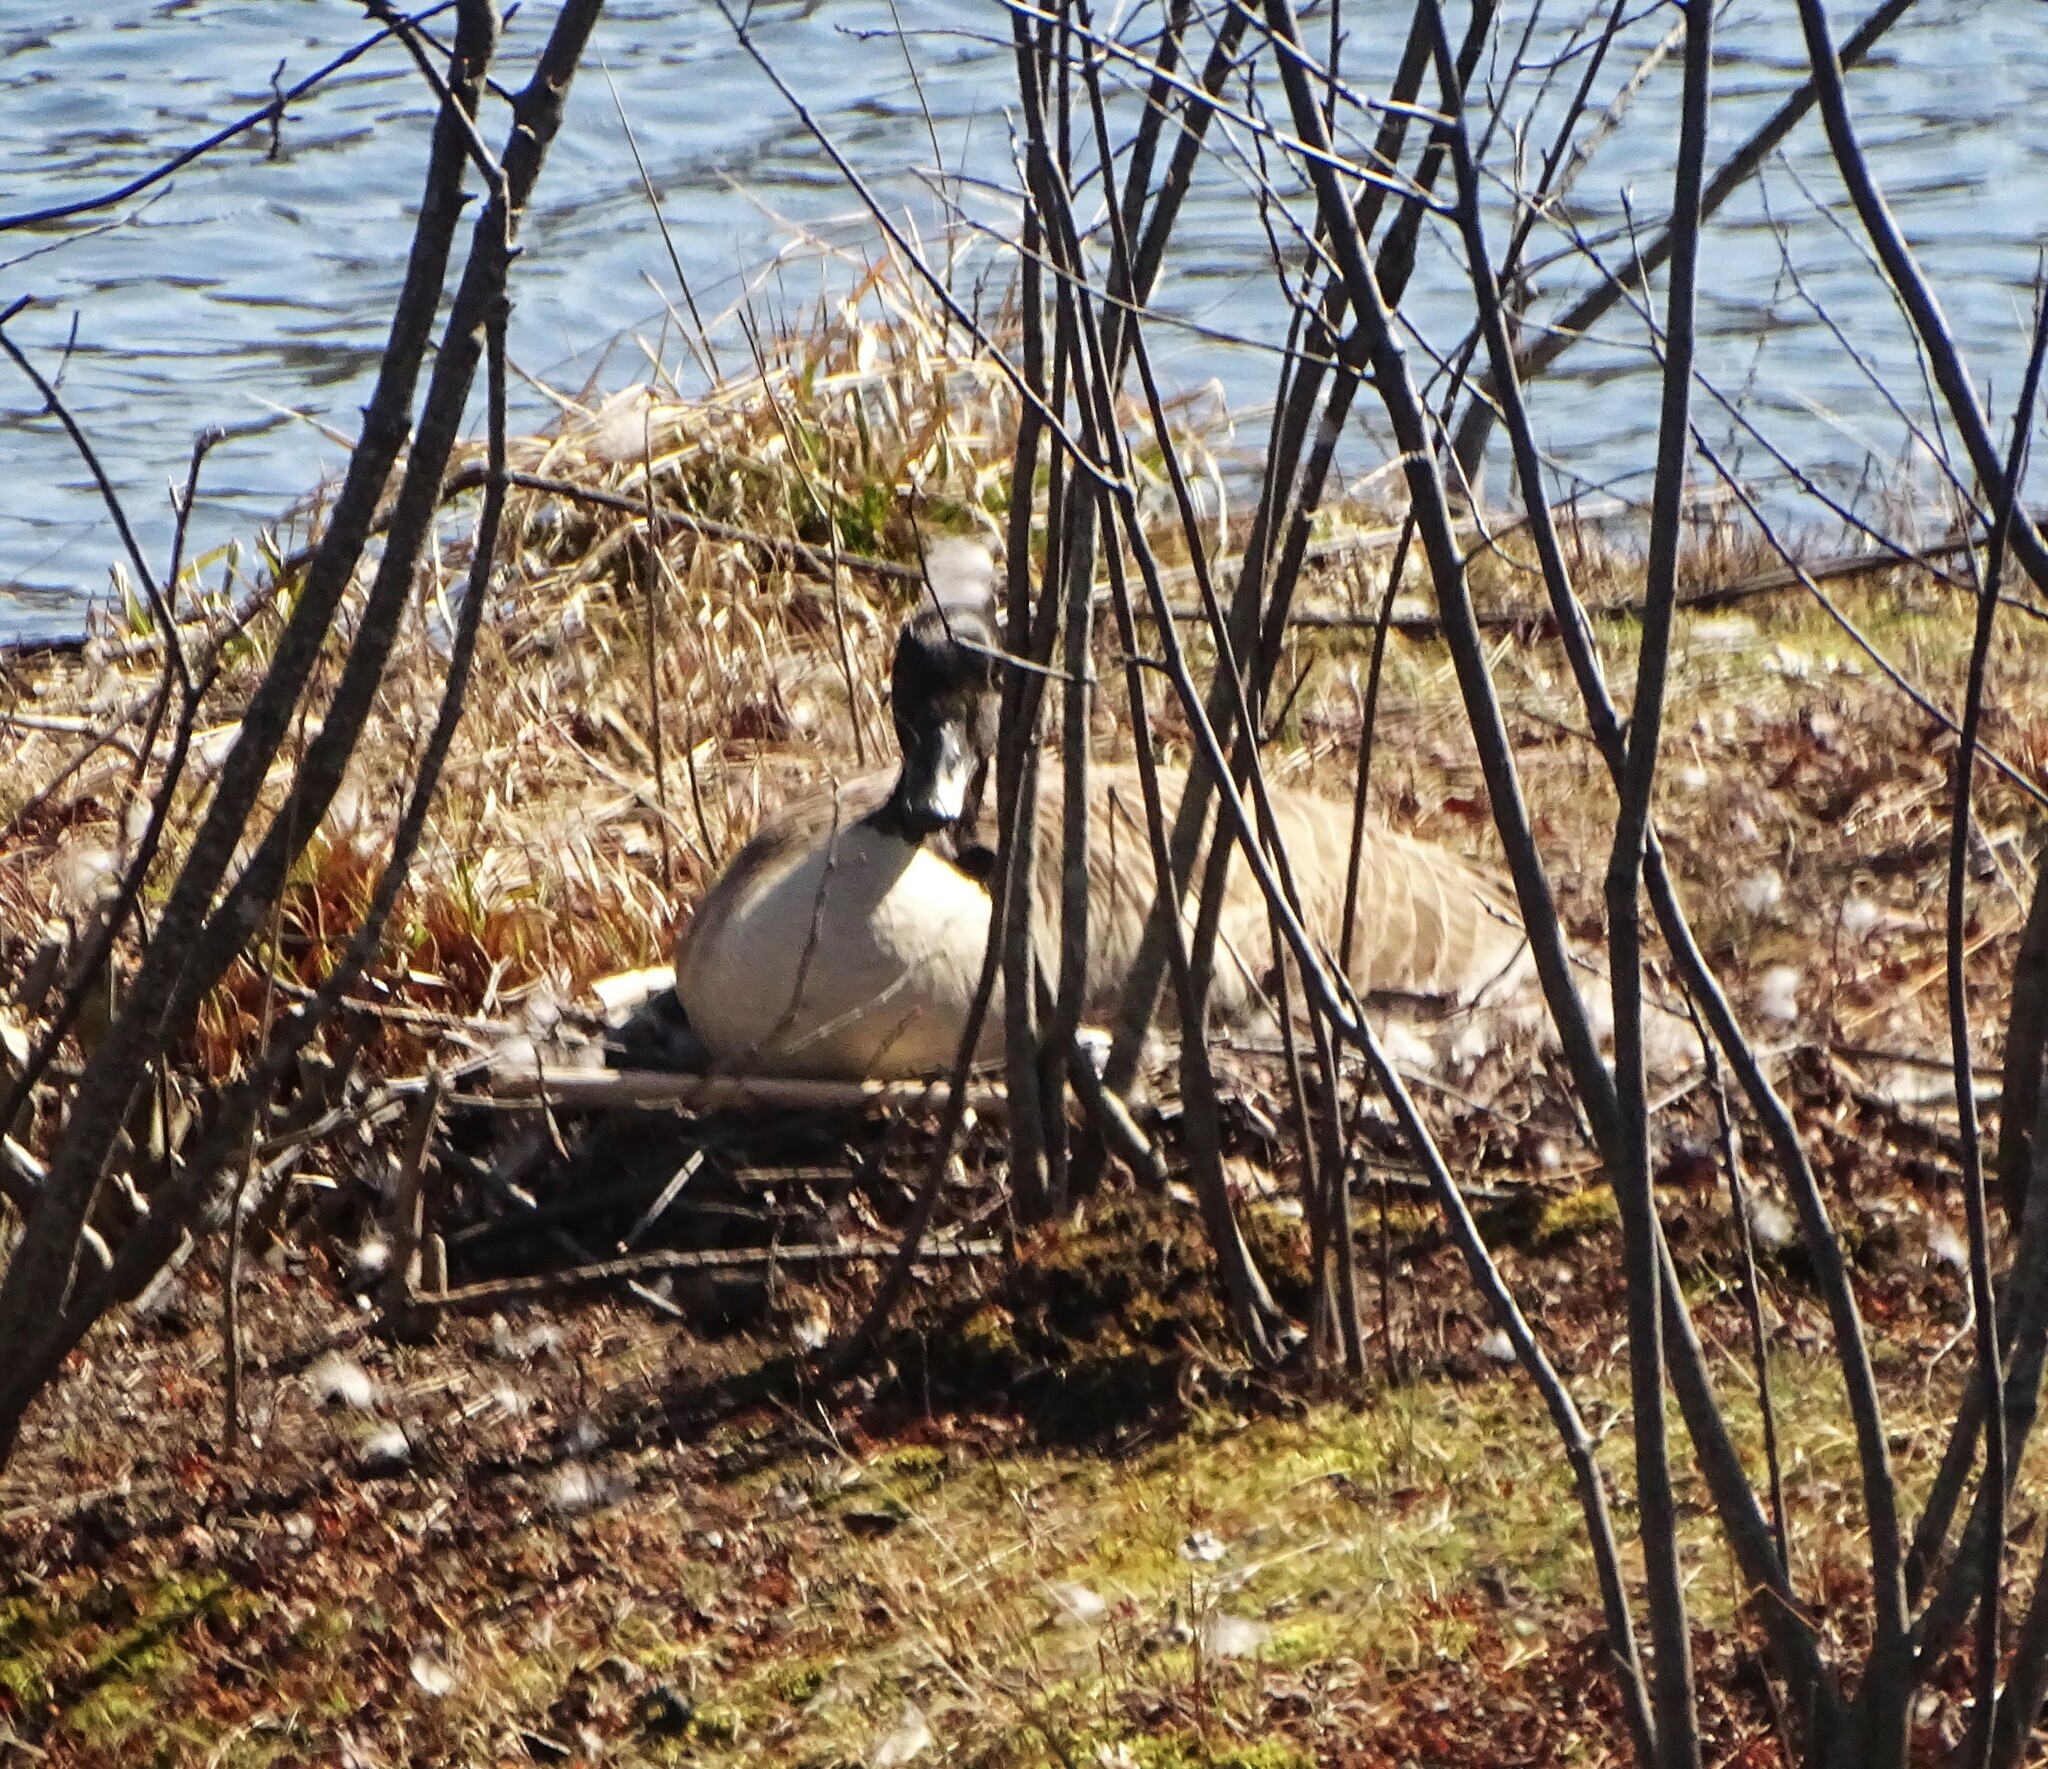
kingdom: Animalia
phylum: Chordata
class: Aves
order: Anseriformes
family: Anatidae
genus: Branta
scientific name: Branta canadensis
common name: Canada goose
